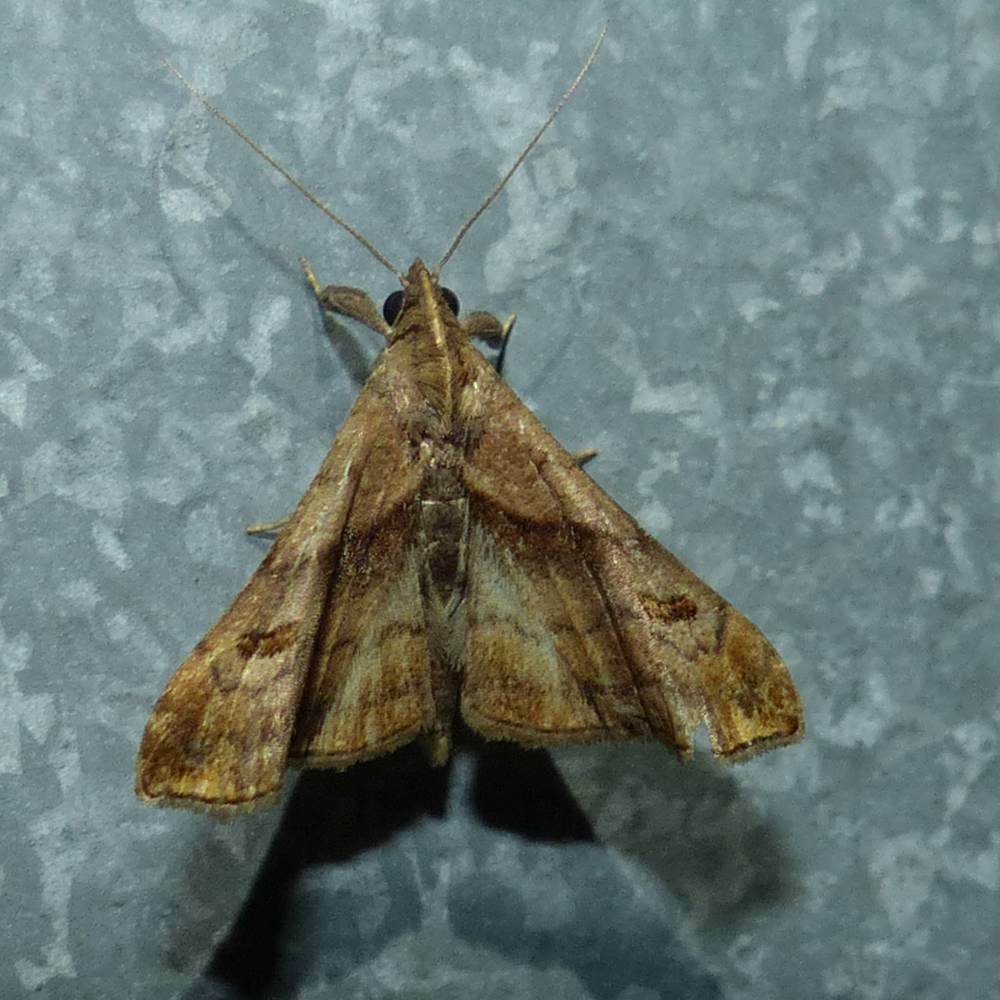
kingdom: Animalia
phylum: Arthropoda
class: Insecta
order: Lepidoptera
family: Erebidae
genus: Palthis
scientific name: Palthis angulalis
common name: Dark-spotted palthis moth
